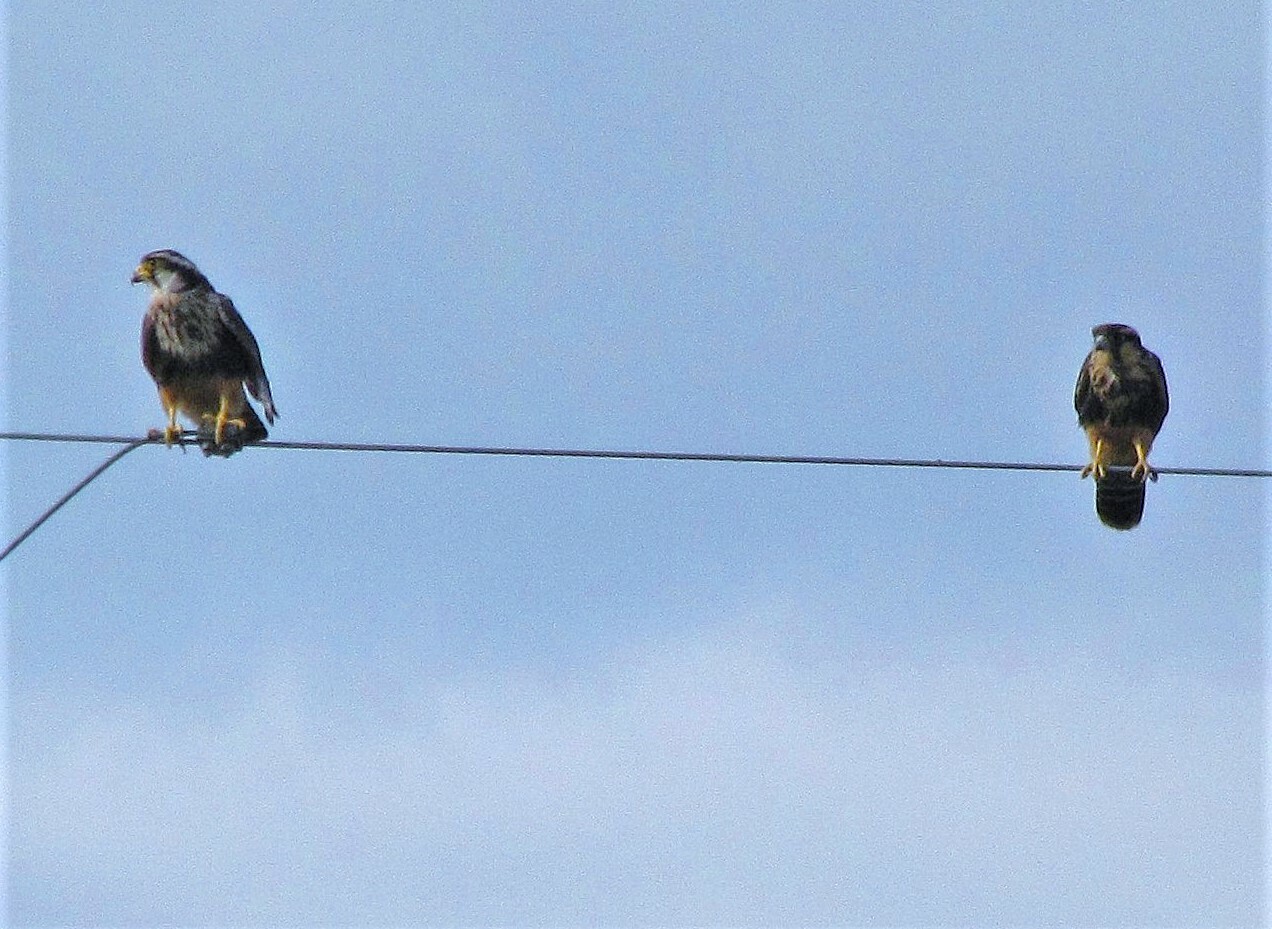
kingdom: Animalia
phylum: Chordata
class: Aves
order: Falconiformes
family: Falconidae
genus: Falco
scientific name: Falco femoralis
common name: Aplomado falcon
